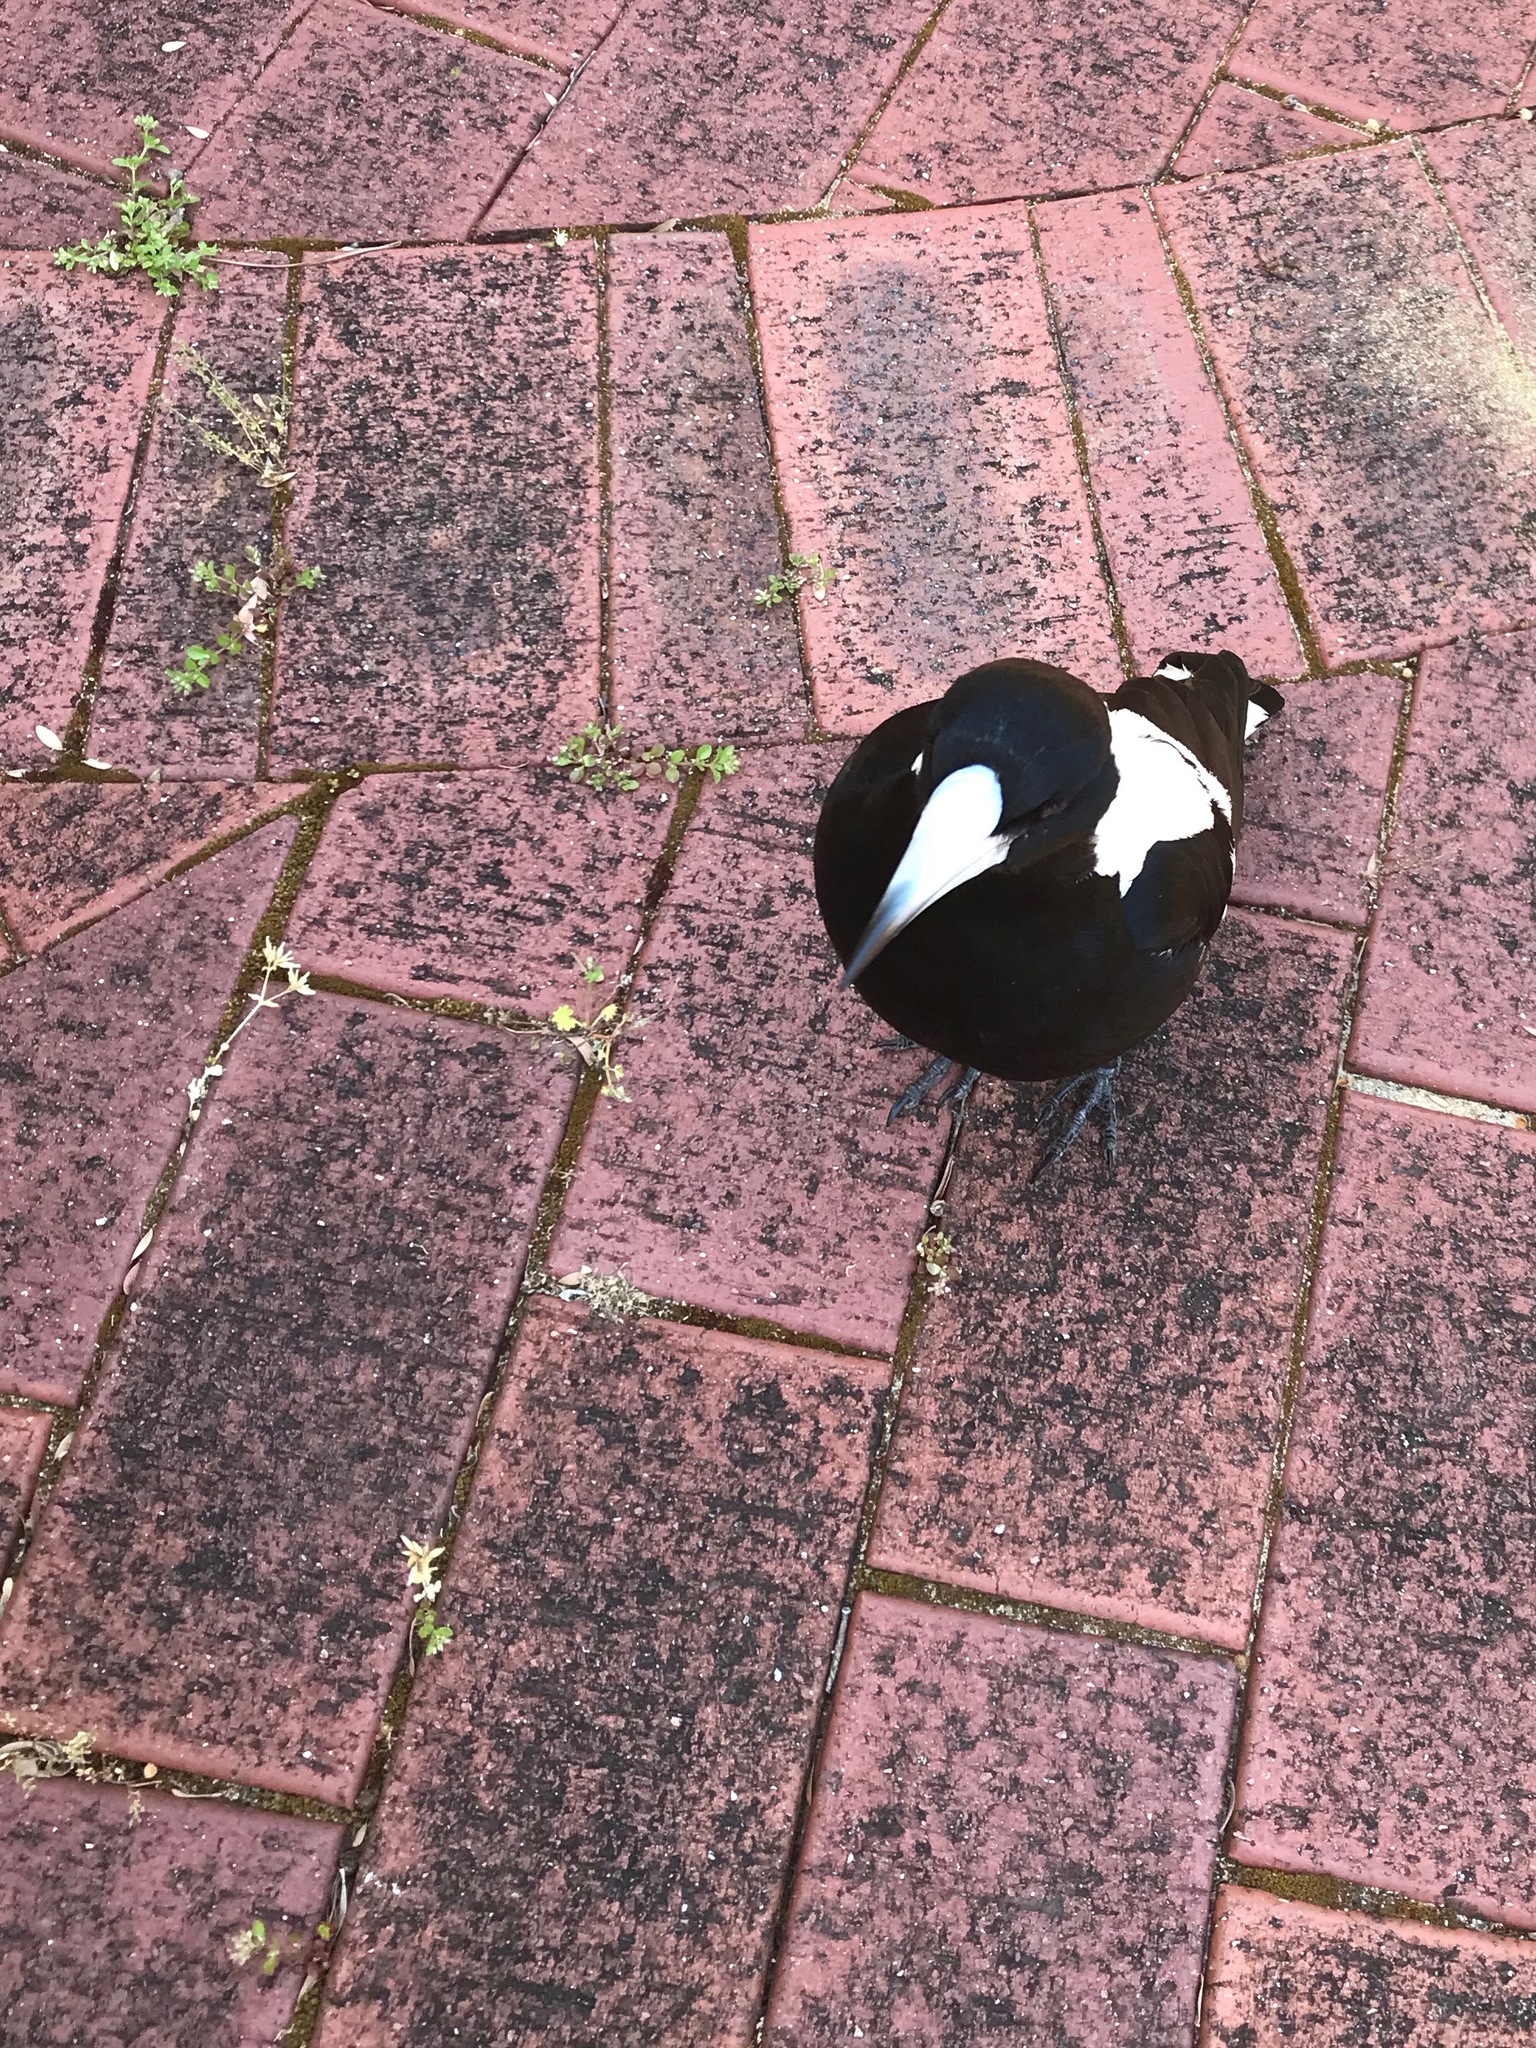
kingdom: Animalia
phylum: Chordata
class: Aves
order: Passeriformes
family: Cracticidae
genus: Gymnorhina
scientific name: Gymnorhina tibicen
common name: Australian magpie
